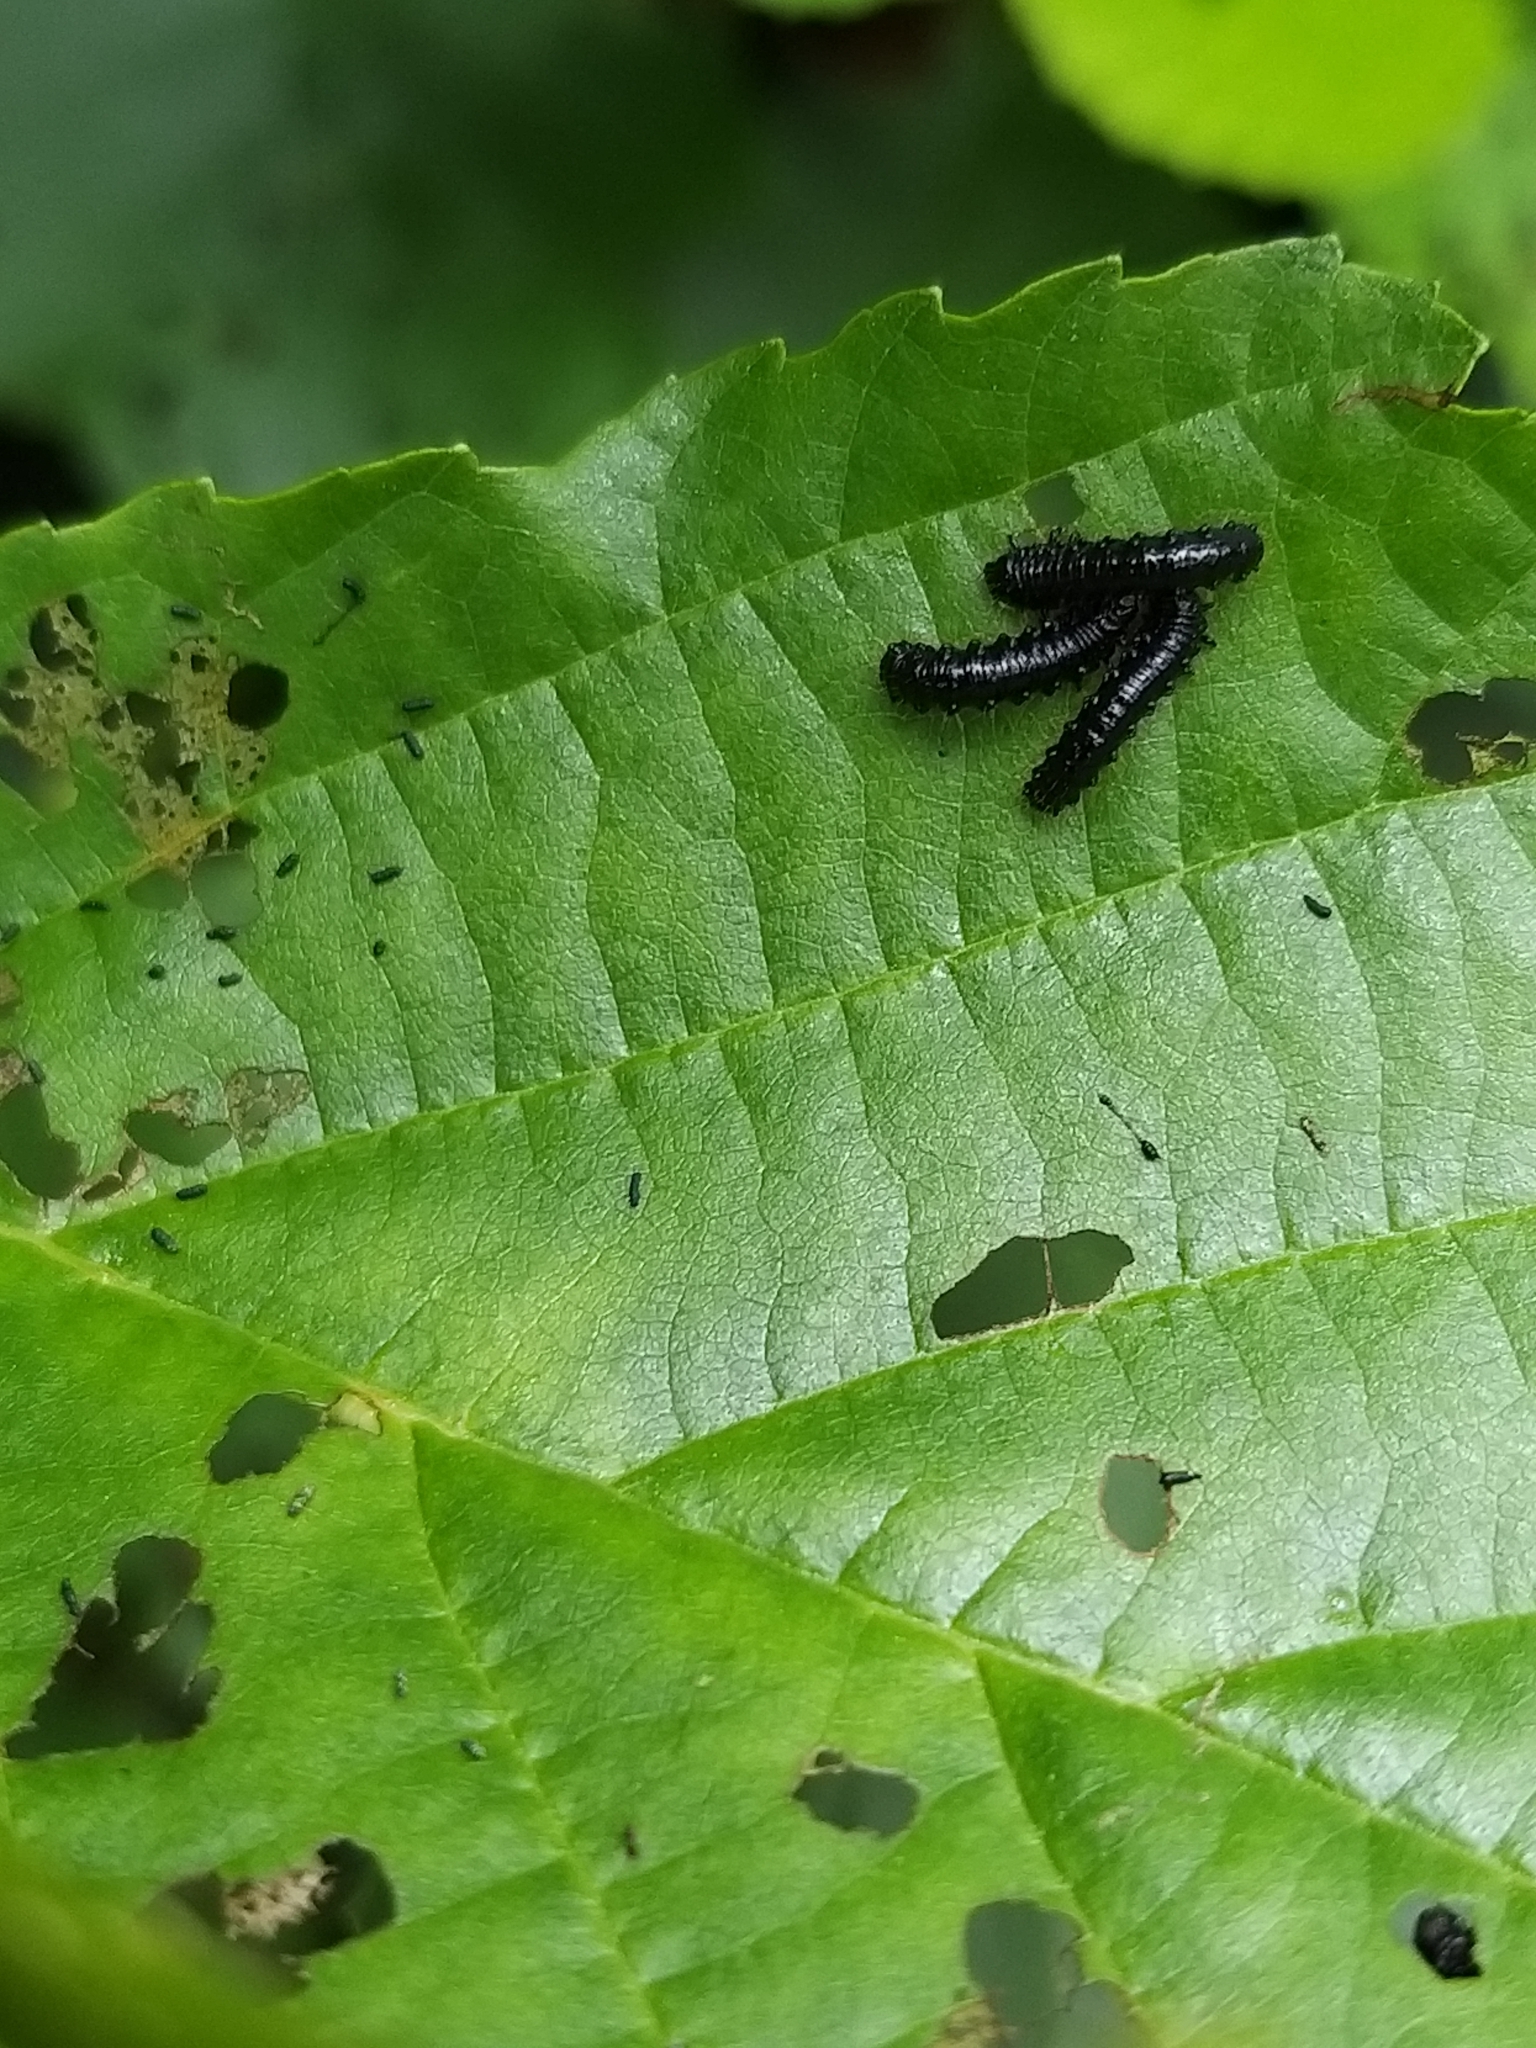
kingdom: Animalia
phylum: Arthropoda
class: Insecta
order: Coleoptera
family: Chrysomelidae
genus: Agelastica
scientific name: Agelastica alni
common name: Alder leaf beetle
